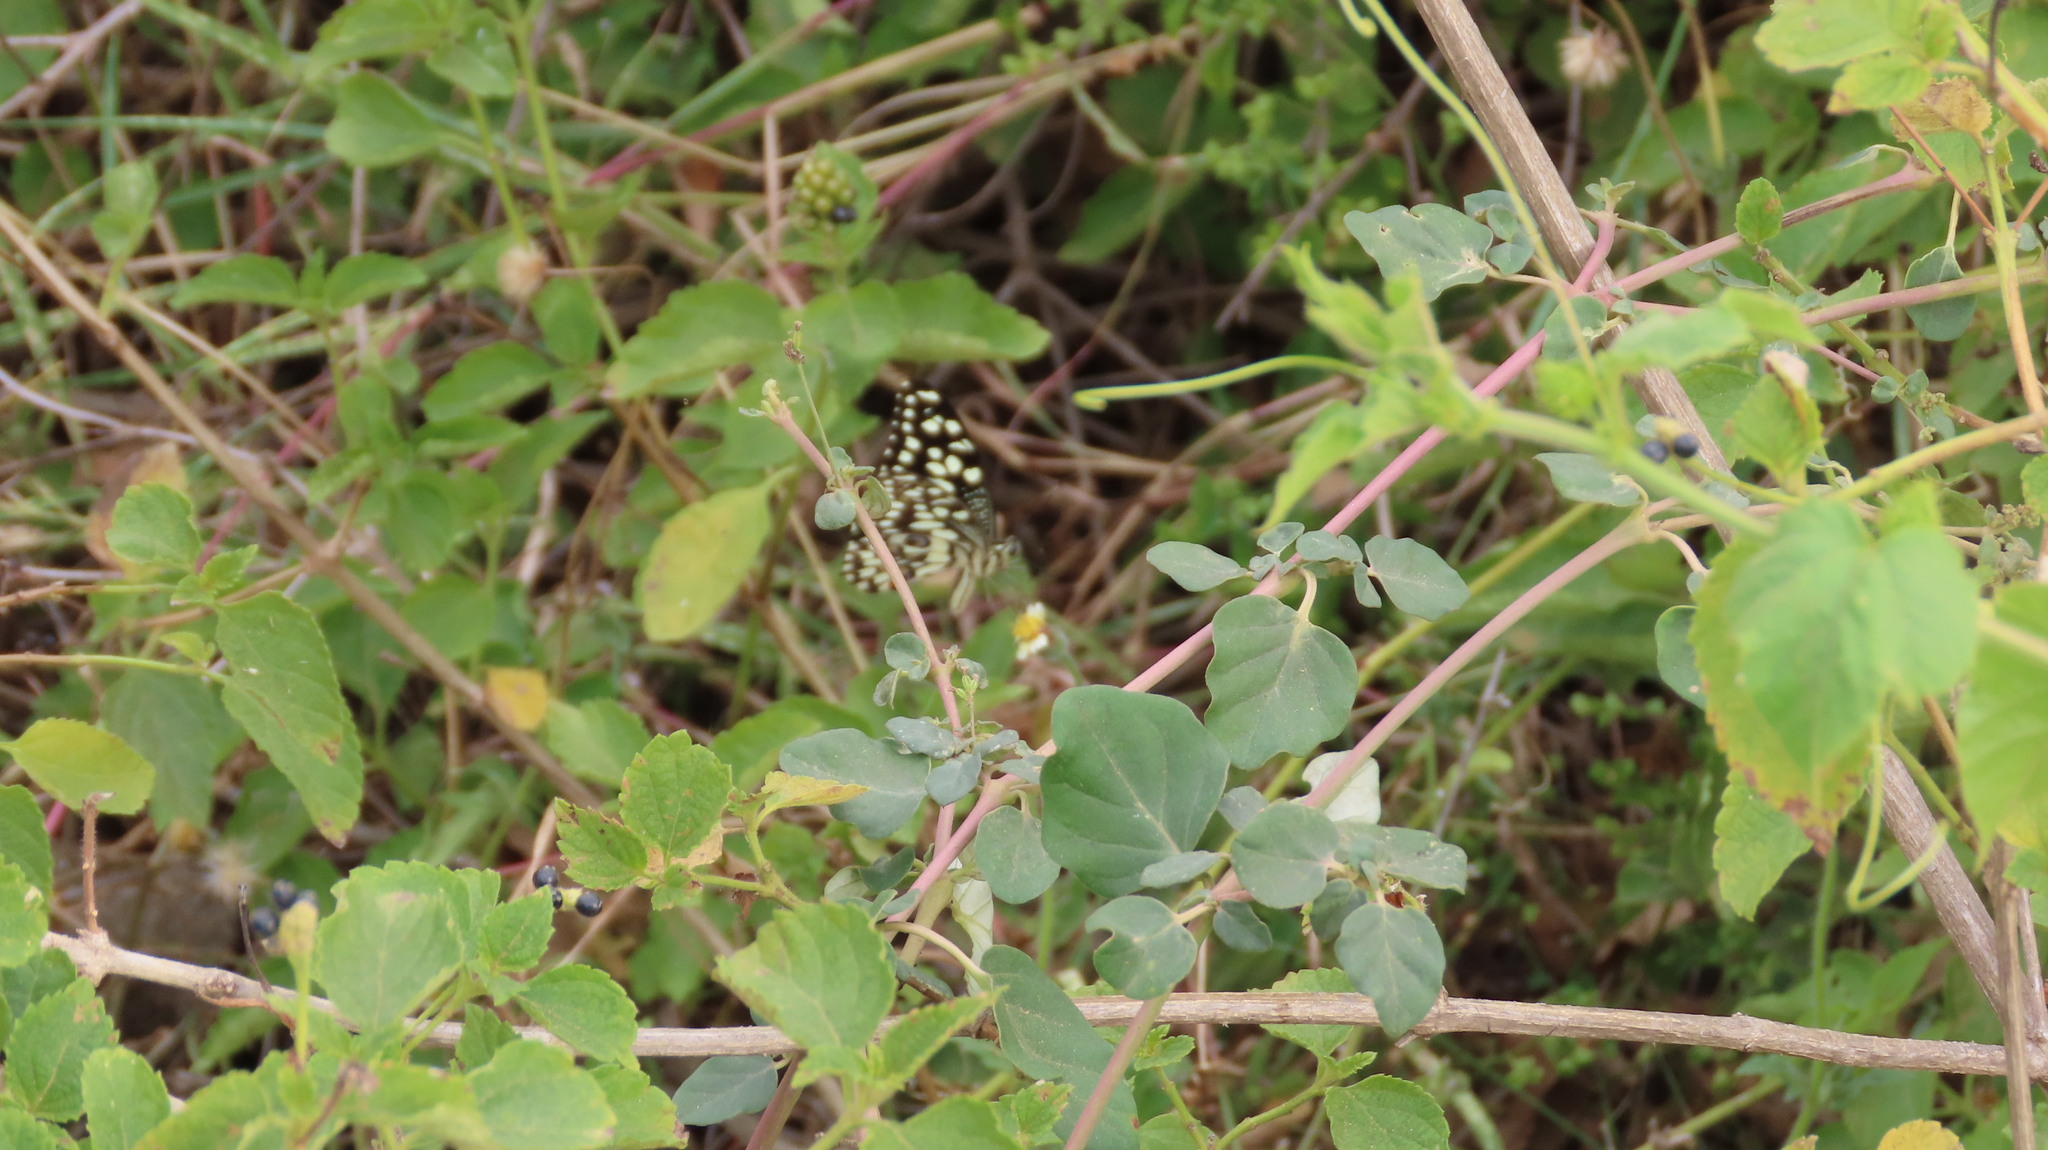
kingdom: Animalia
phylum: Arthropoda
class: Insecta
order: Lepidoptera
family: Papilionidae
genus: Papilio
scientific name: Papilio demoleus
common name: Lime butterfly
